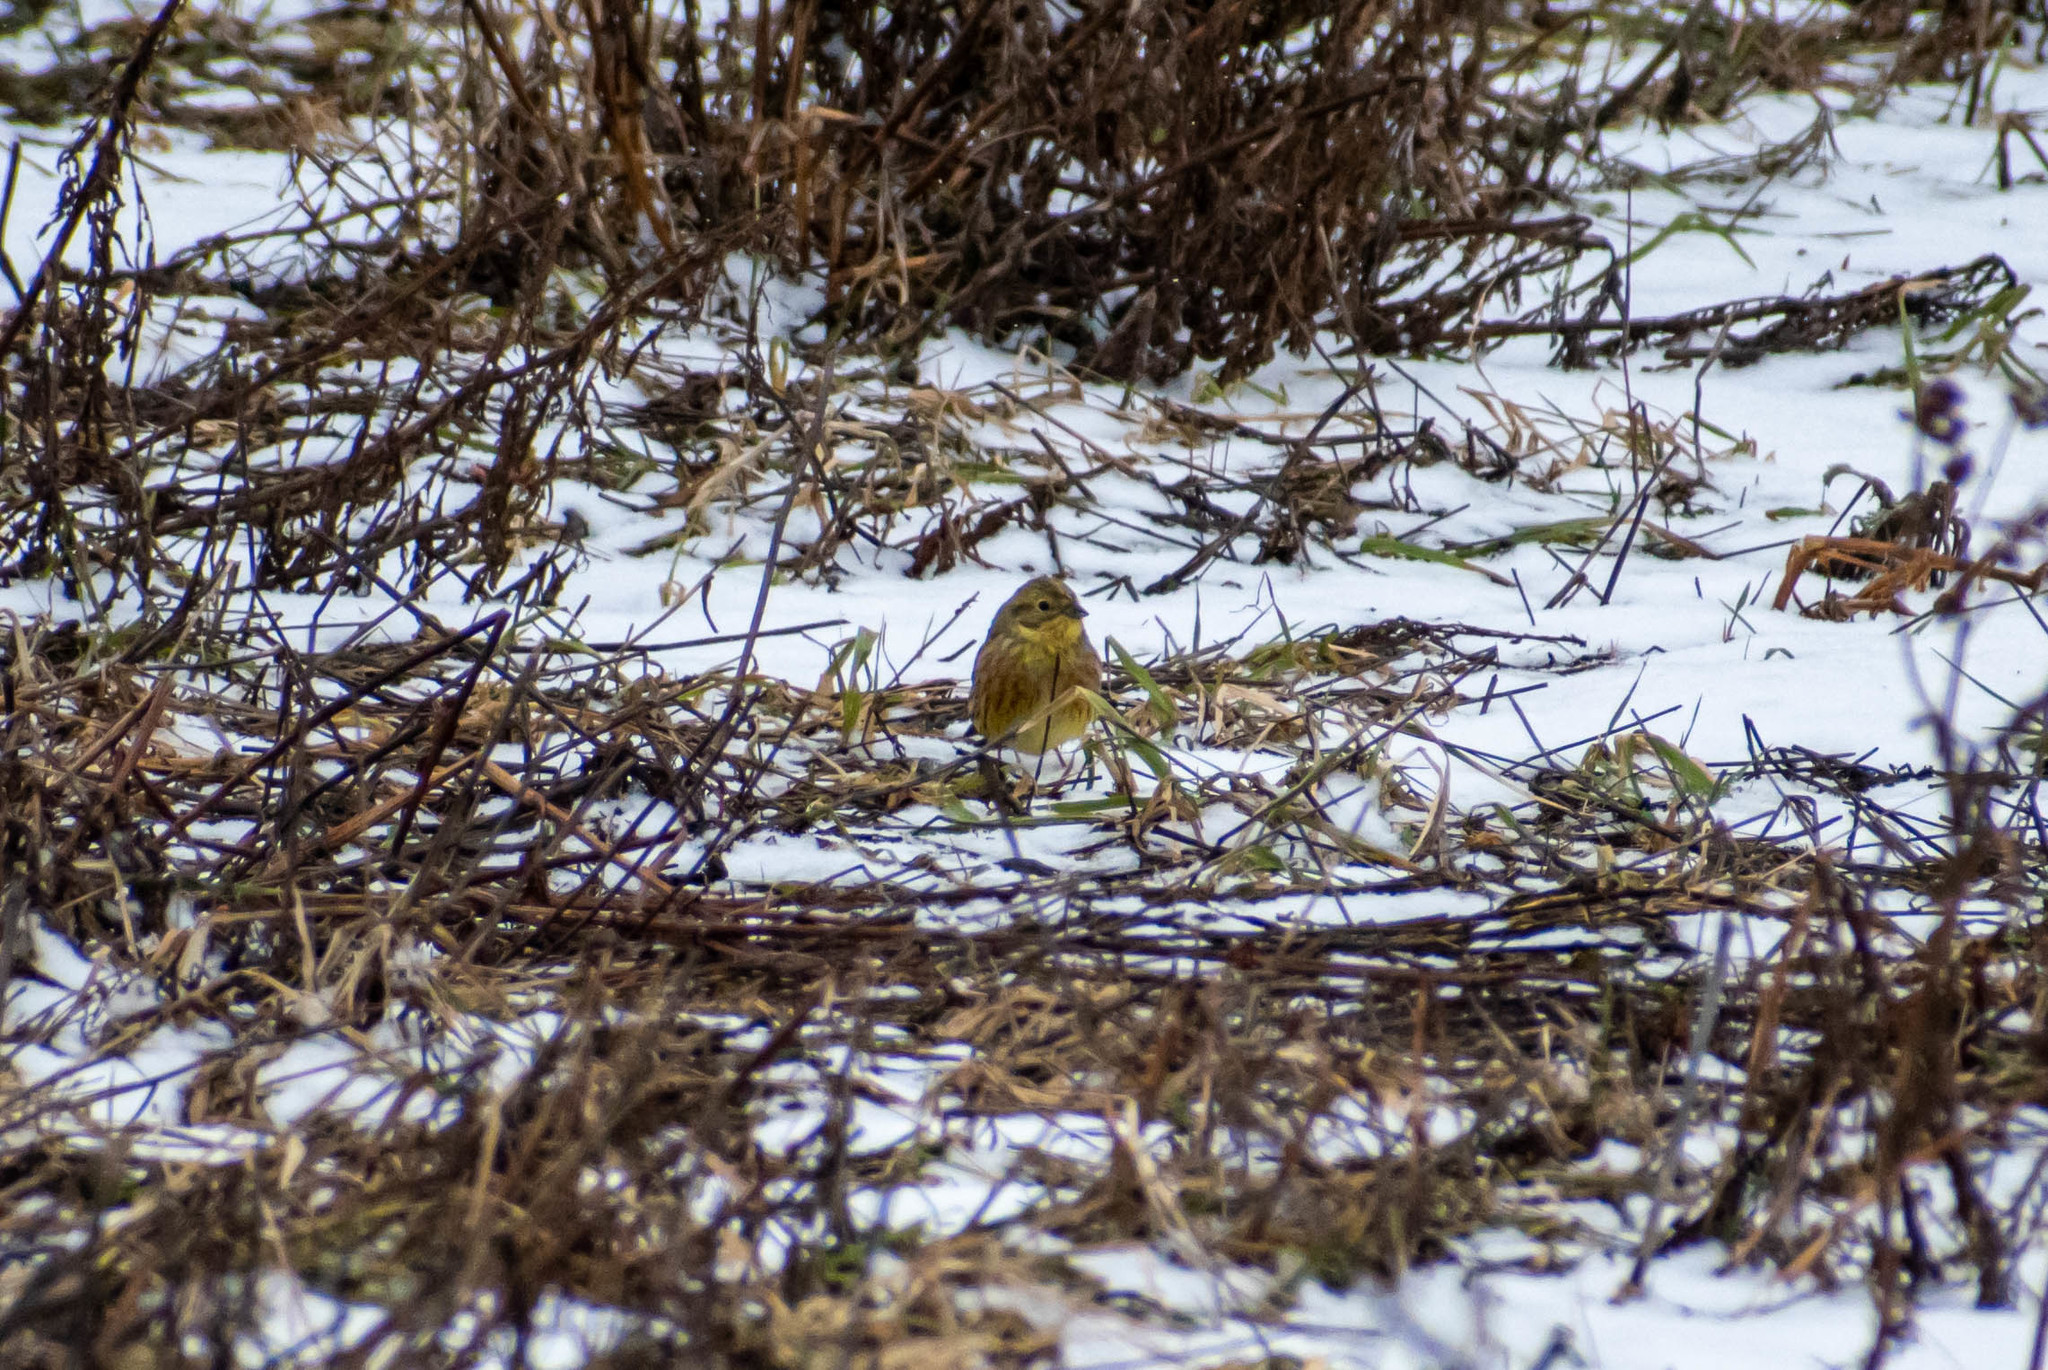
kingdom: Animalia
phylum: Chordata
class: Aves
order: Passeriformes
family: Emberizidae
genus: Emberiza
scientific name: Emberiza citrinella
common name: Yellowhammer
